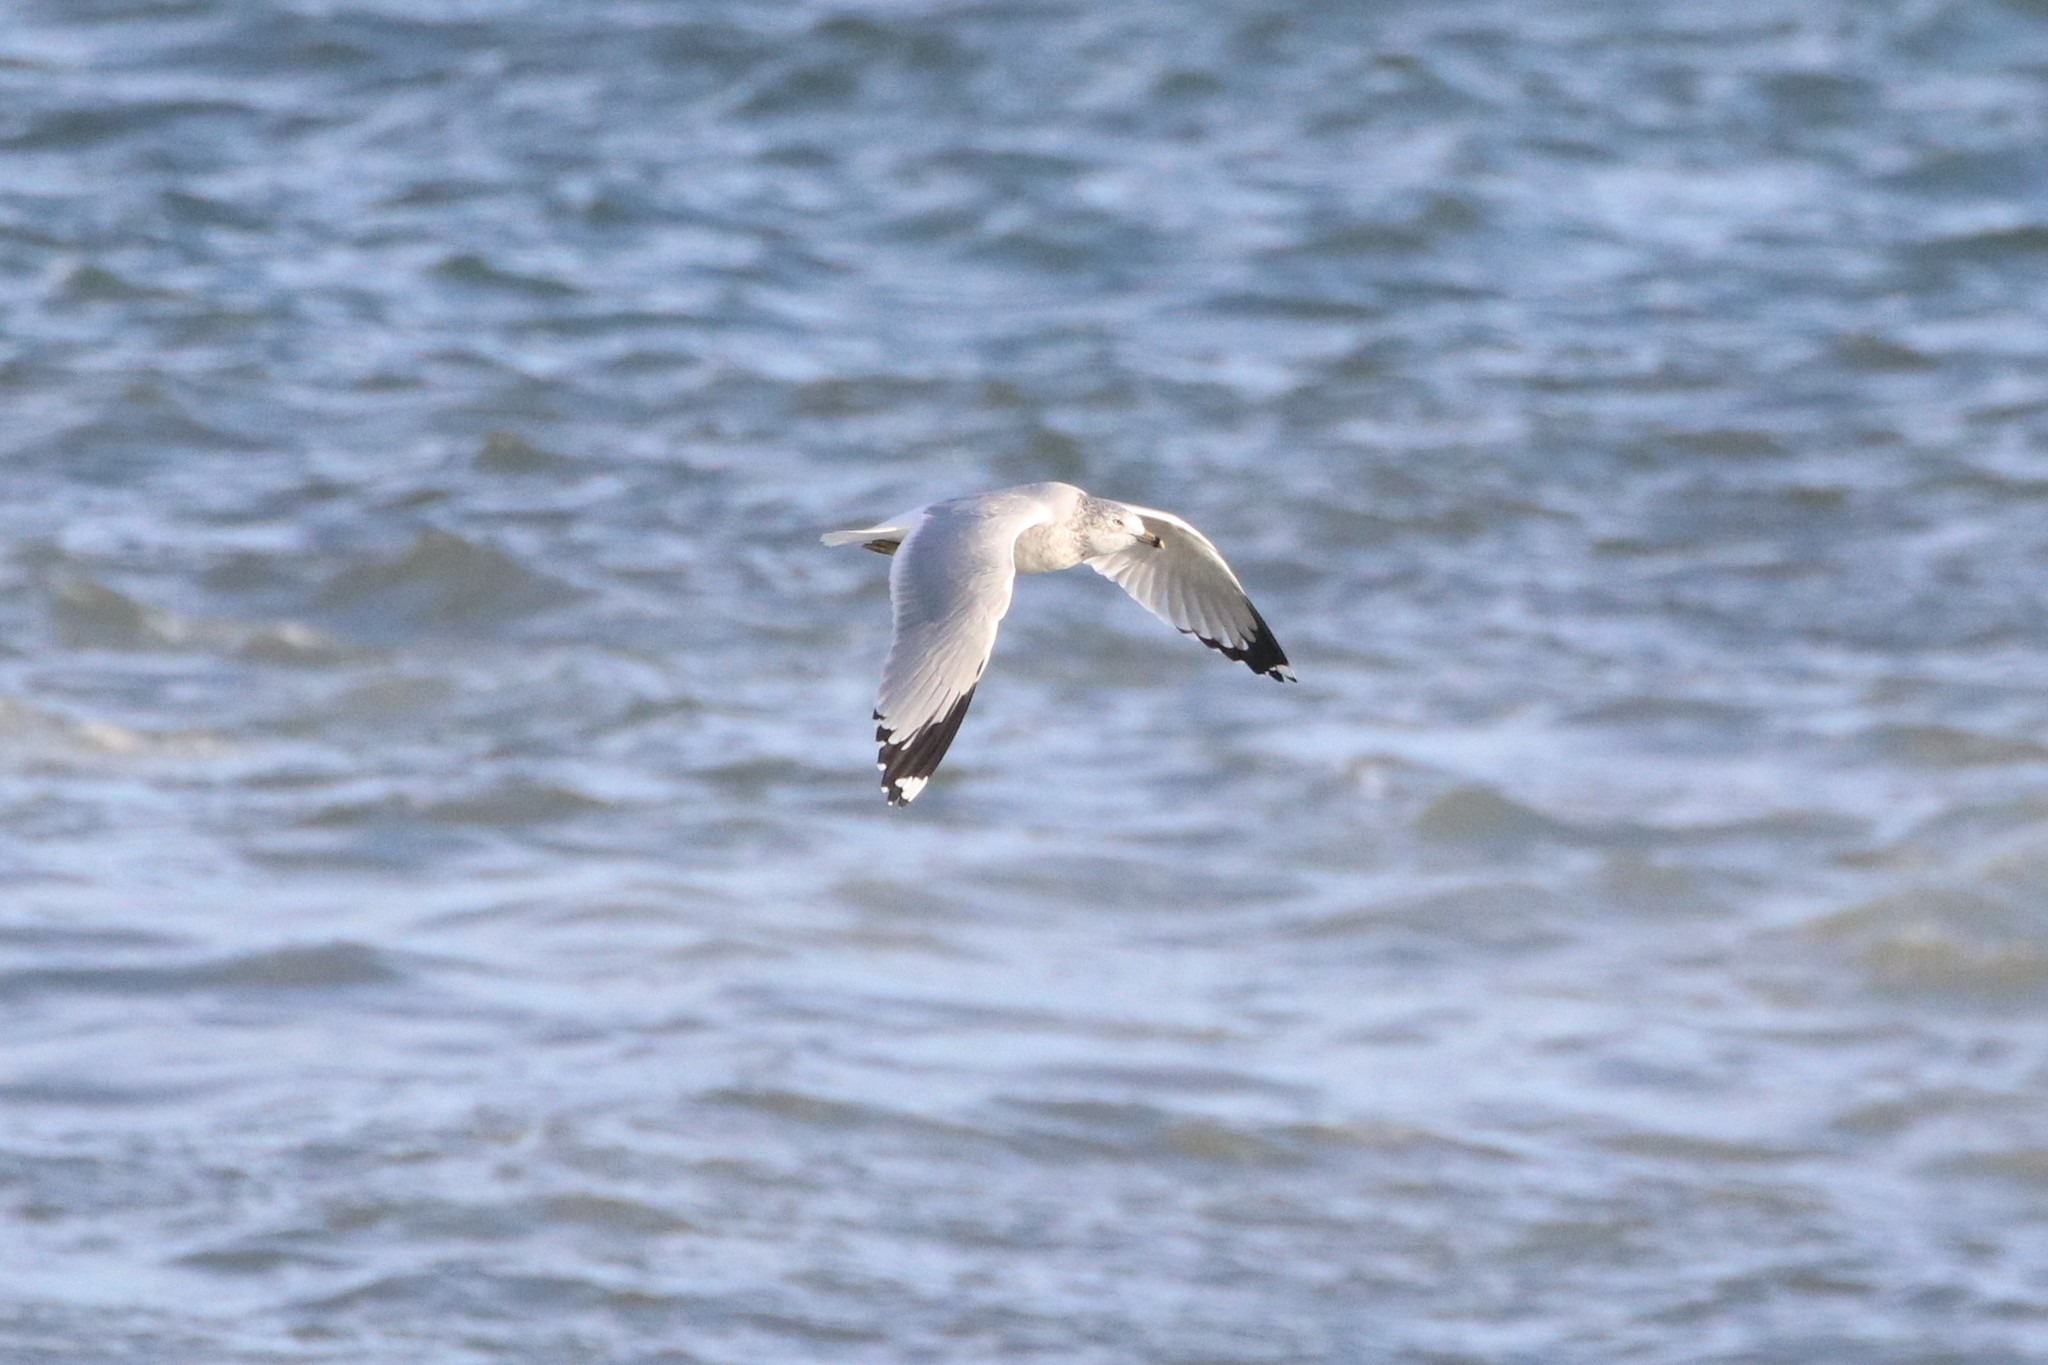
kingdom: Animalia
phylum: Chordata
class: Aves
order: Charadriiformes
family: Laridae
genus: Larus
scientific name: Larus delawarensis
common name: Ring-billed gull
